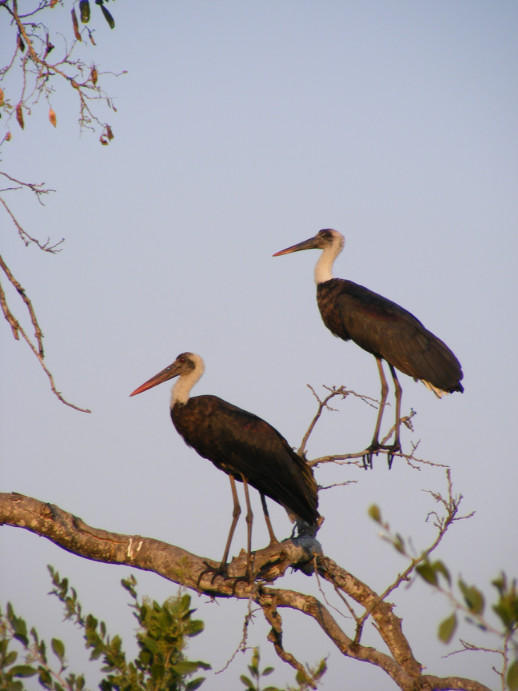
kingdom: Animalia
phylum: Chordata
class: Aves
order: Ciconiiformes
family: Ciconiidae
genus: Ciconia
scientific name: Ciconia microscelis
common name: African woollyneck
